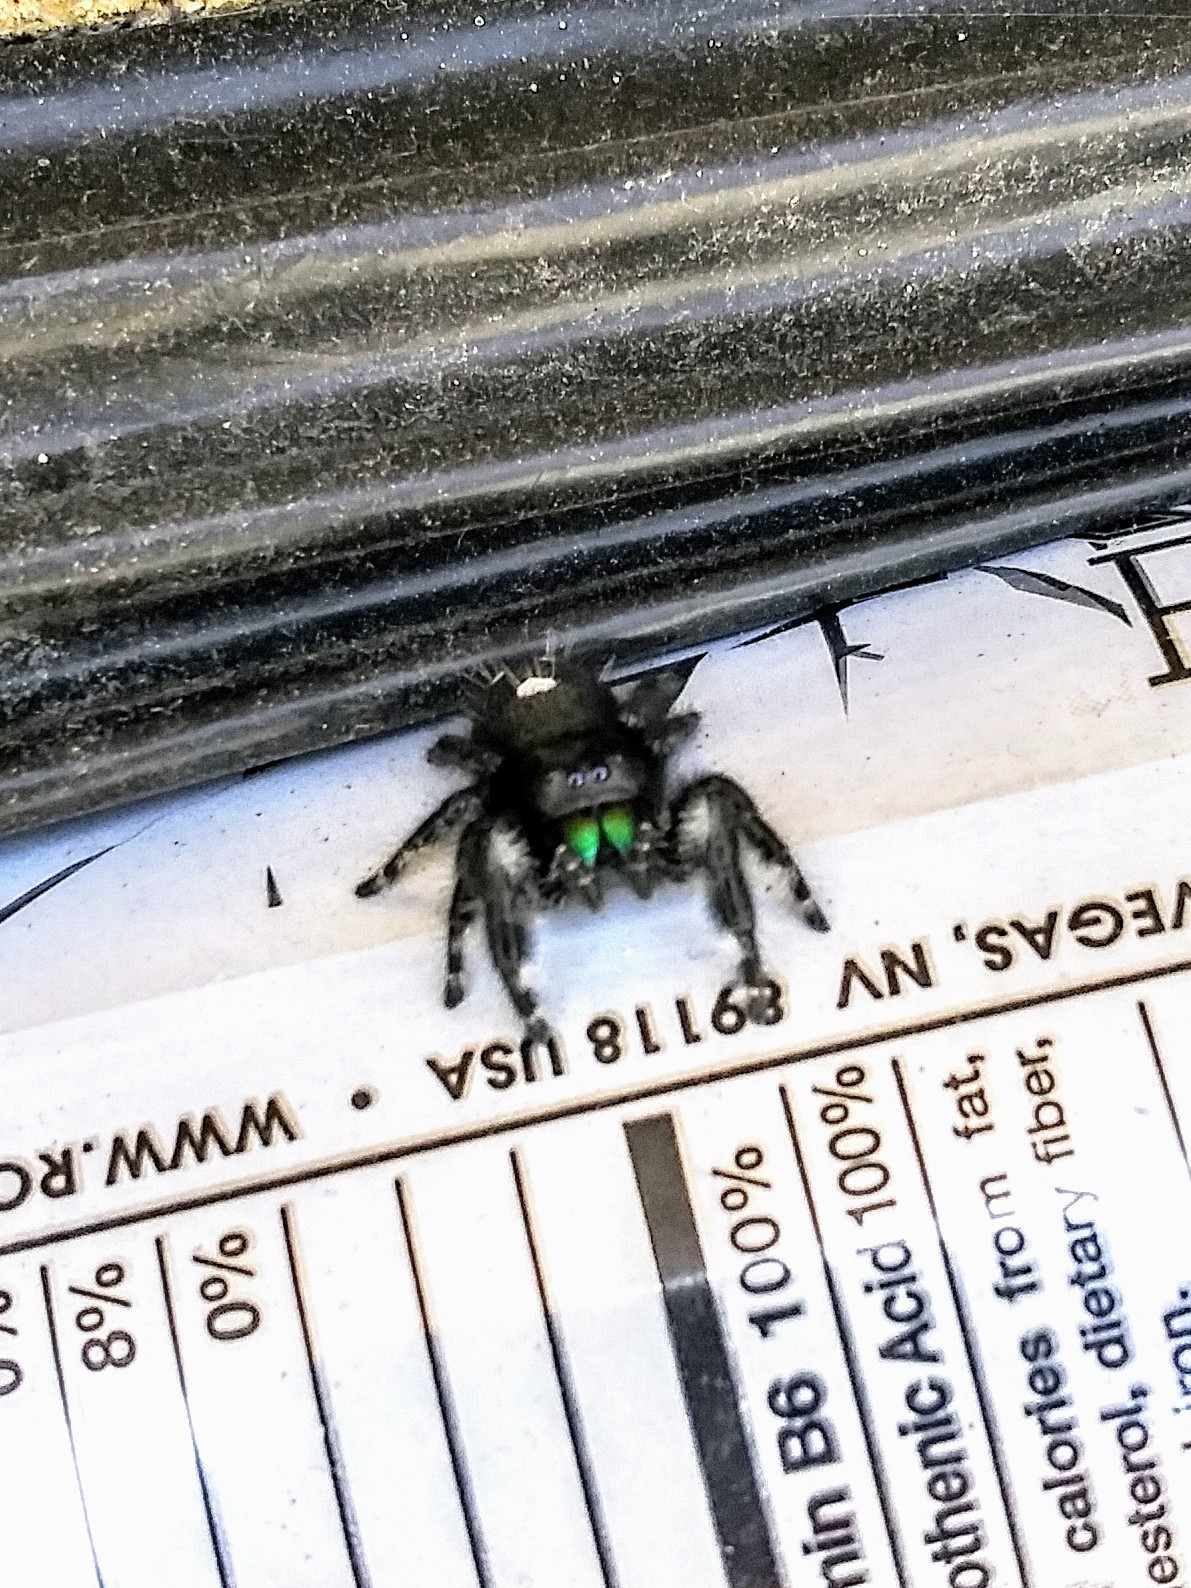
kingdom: Animalia
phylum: Arthropoda
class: Arachnida
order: Araneae
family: Salticidae
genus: Phidippus
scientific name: Phidippus audax
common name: Bold jumper
